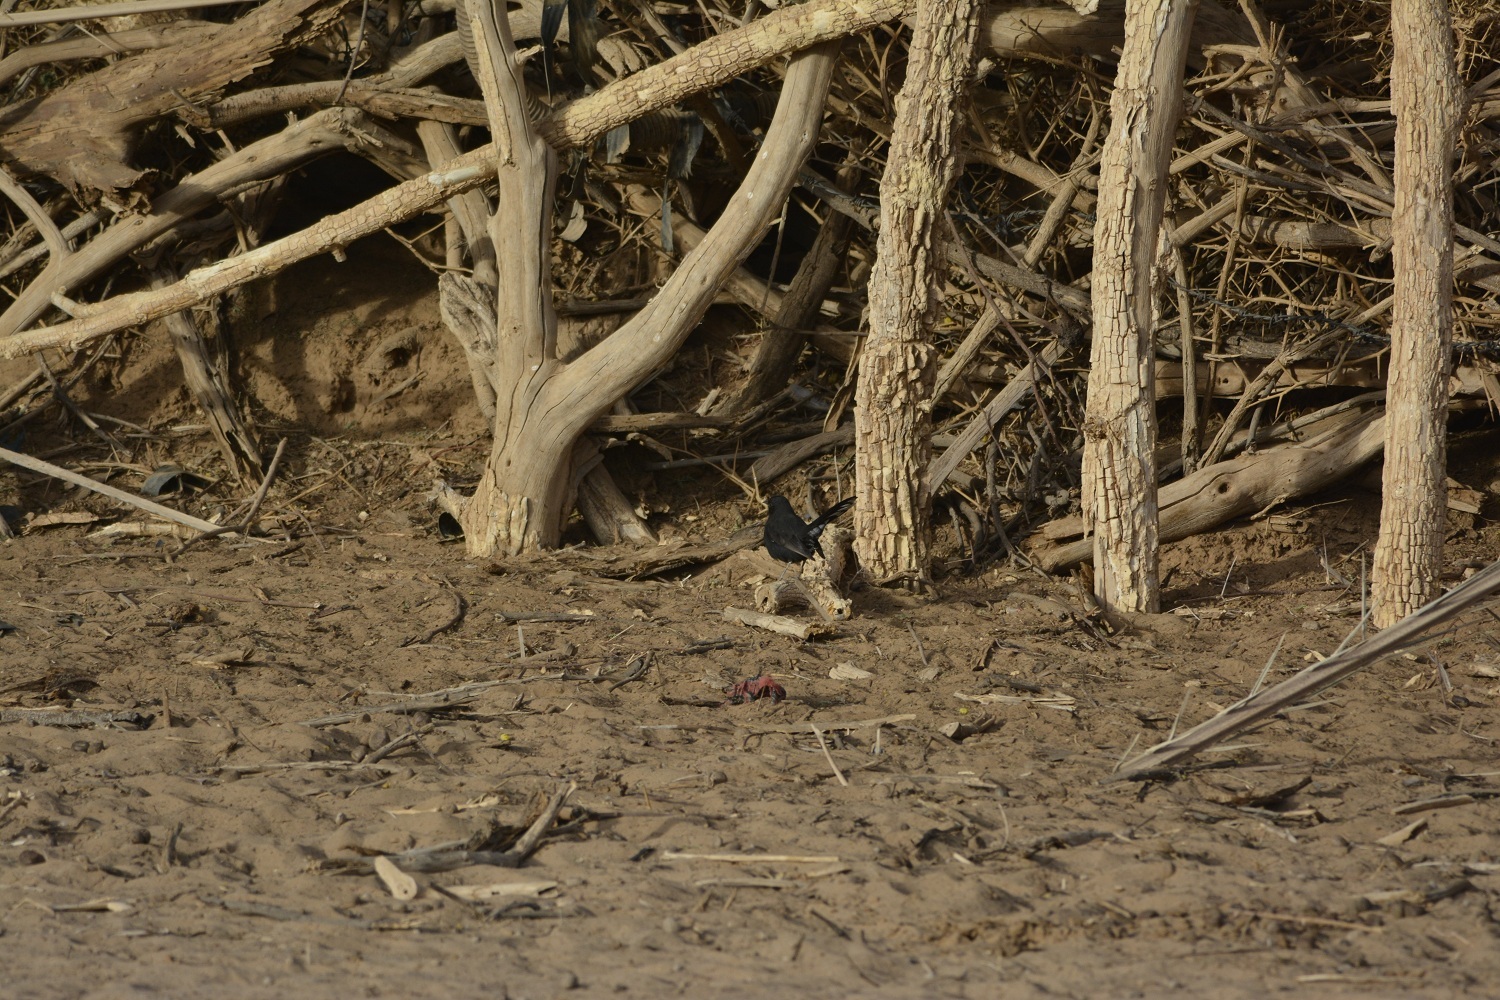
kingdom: Animalia
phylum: Chordata
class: Aves
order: Passeriformes
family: Muscicapidae
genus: Cercotrichas
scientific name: Cercotrichas podobe
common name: Black scrub robin
